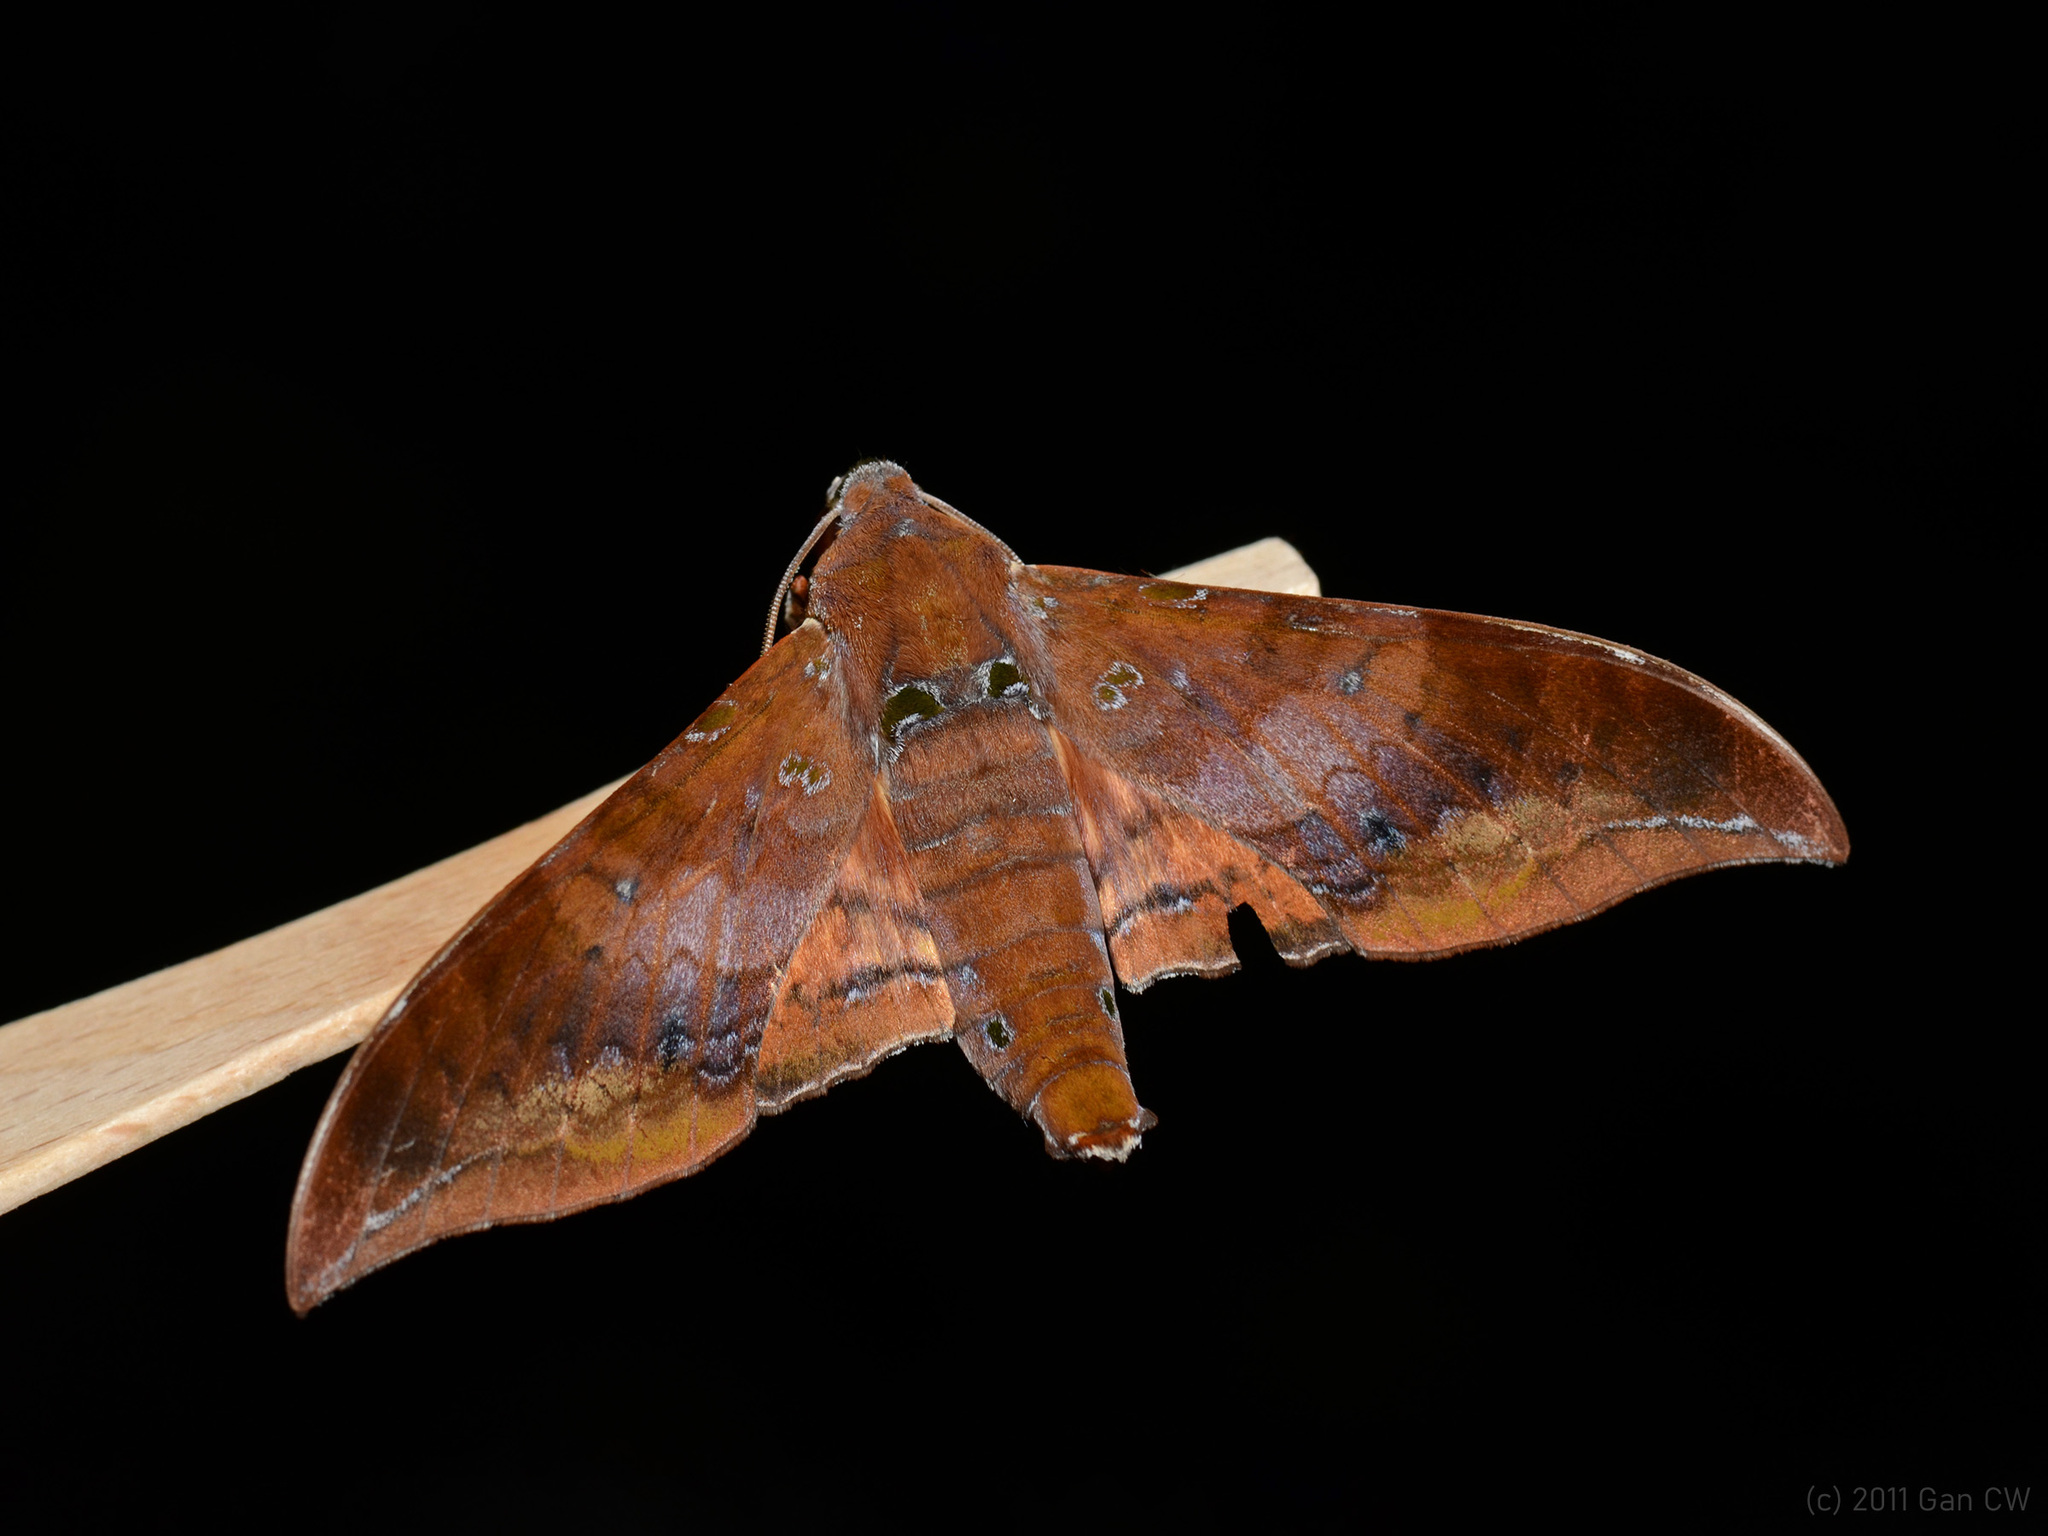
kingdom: Animalia
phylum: Arthropoda
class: Insecta
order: Lepidoptera
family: Sphingidae
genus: Ambulyx
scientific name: Ambulyx moorei
